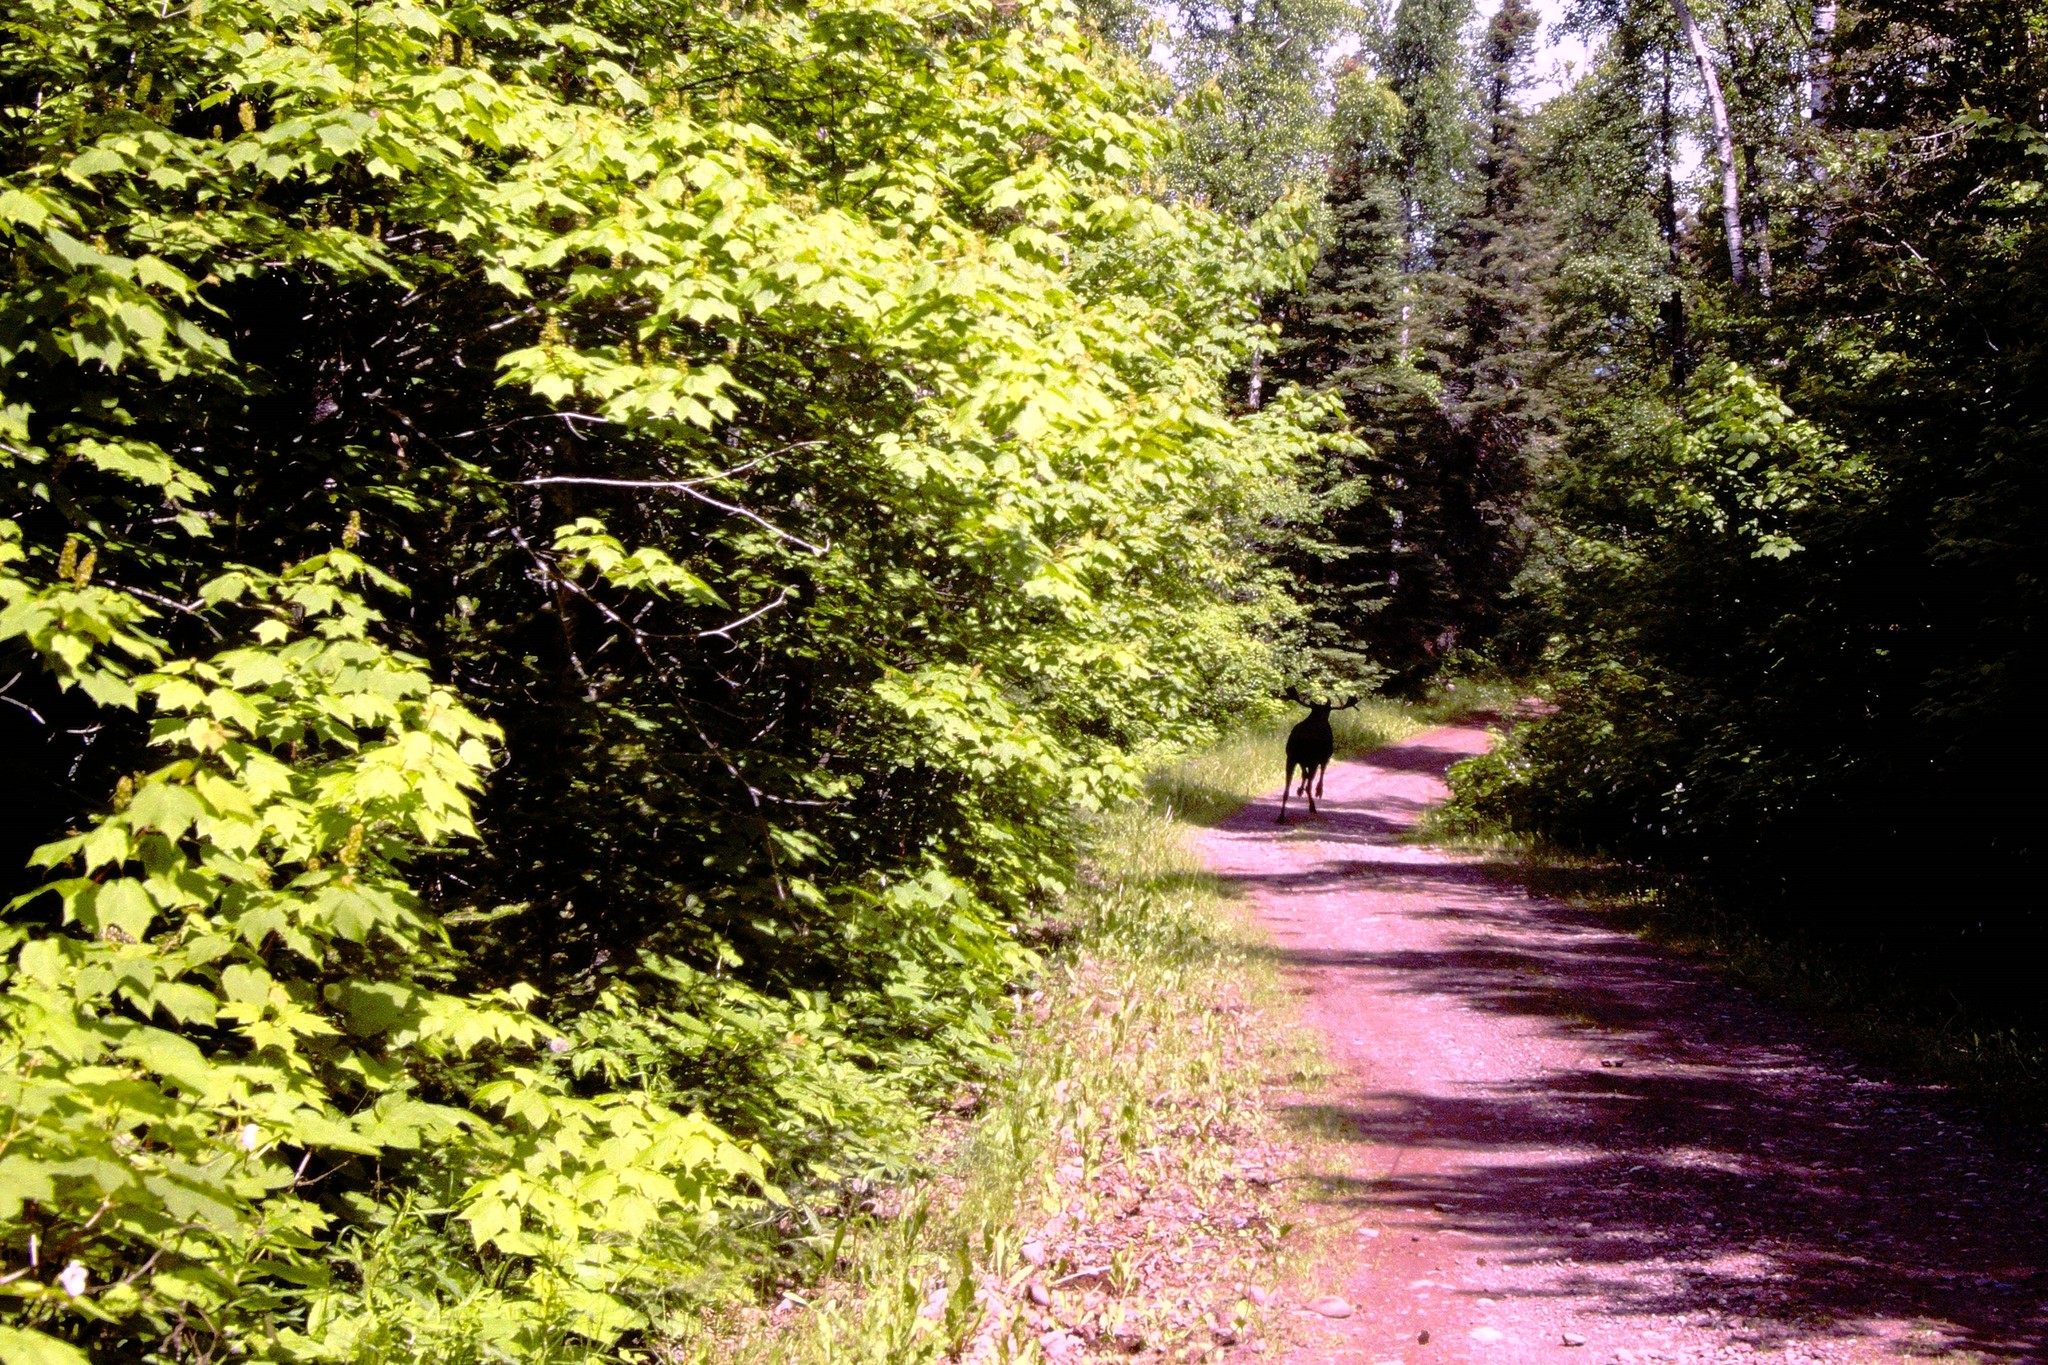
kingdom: Animalia
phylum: Chordata
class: Mammalia
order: Artiodactyla
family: Cervidae
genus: Alces
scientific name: Alces americanus
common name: Moose
